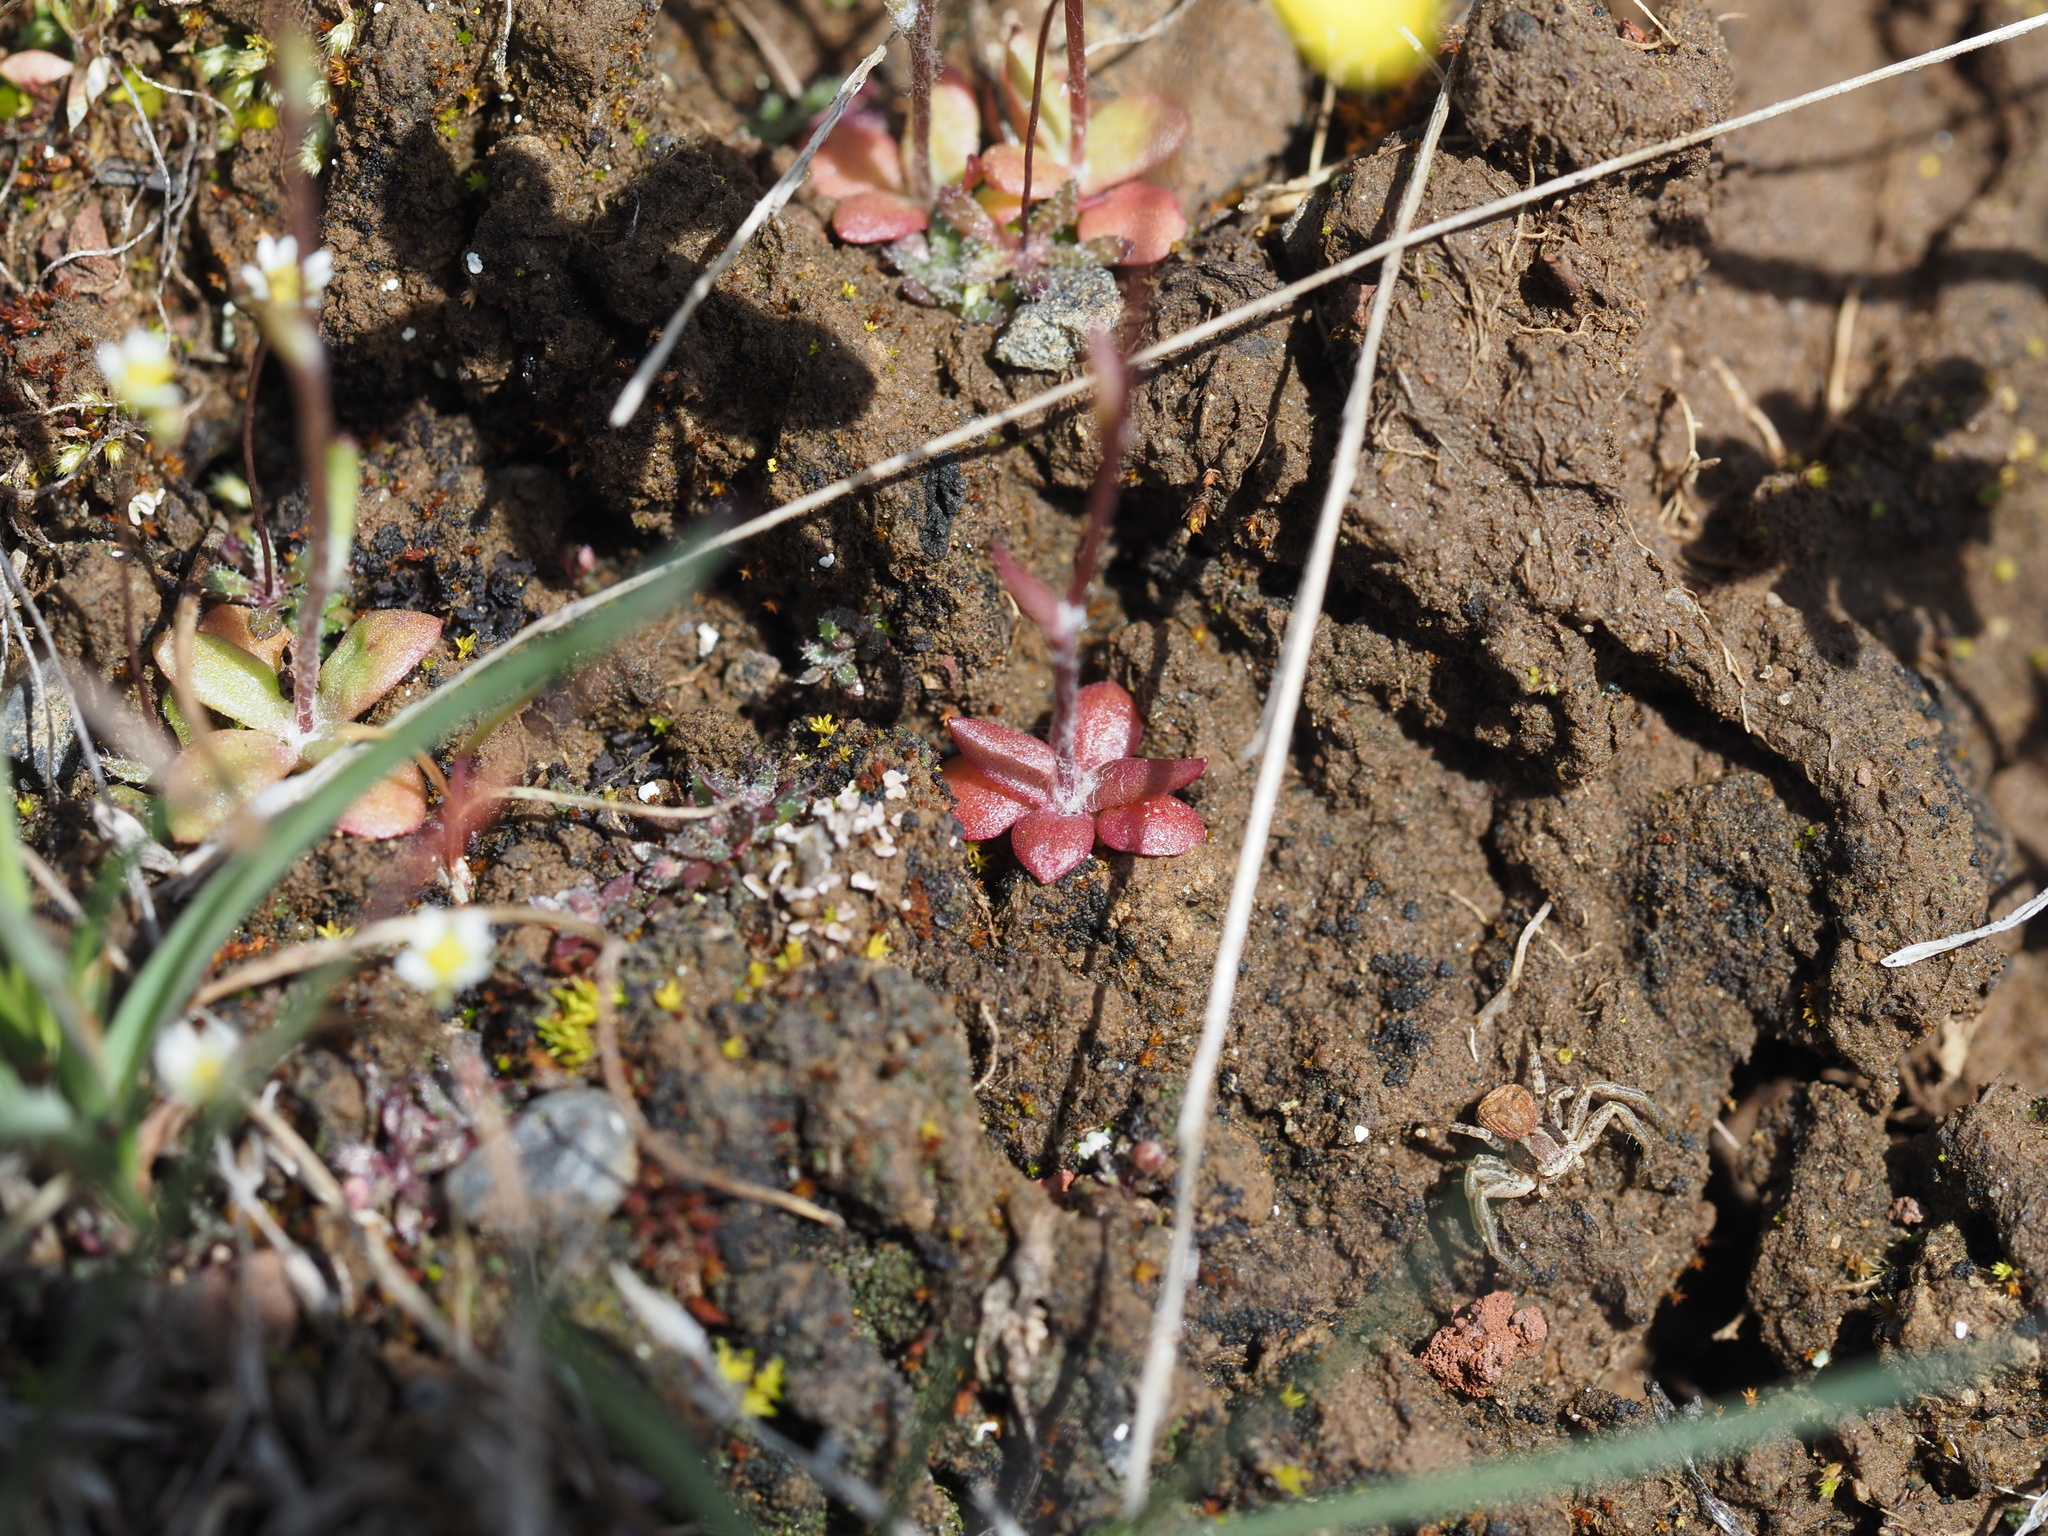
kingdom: Plantae
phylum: Tracheophyta
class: Magnoliopsida
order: Asterales
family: Asteraceae
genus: Crocidium
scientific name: Crocidium multicaule
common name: Common spring gold
